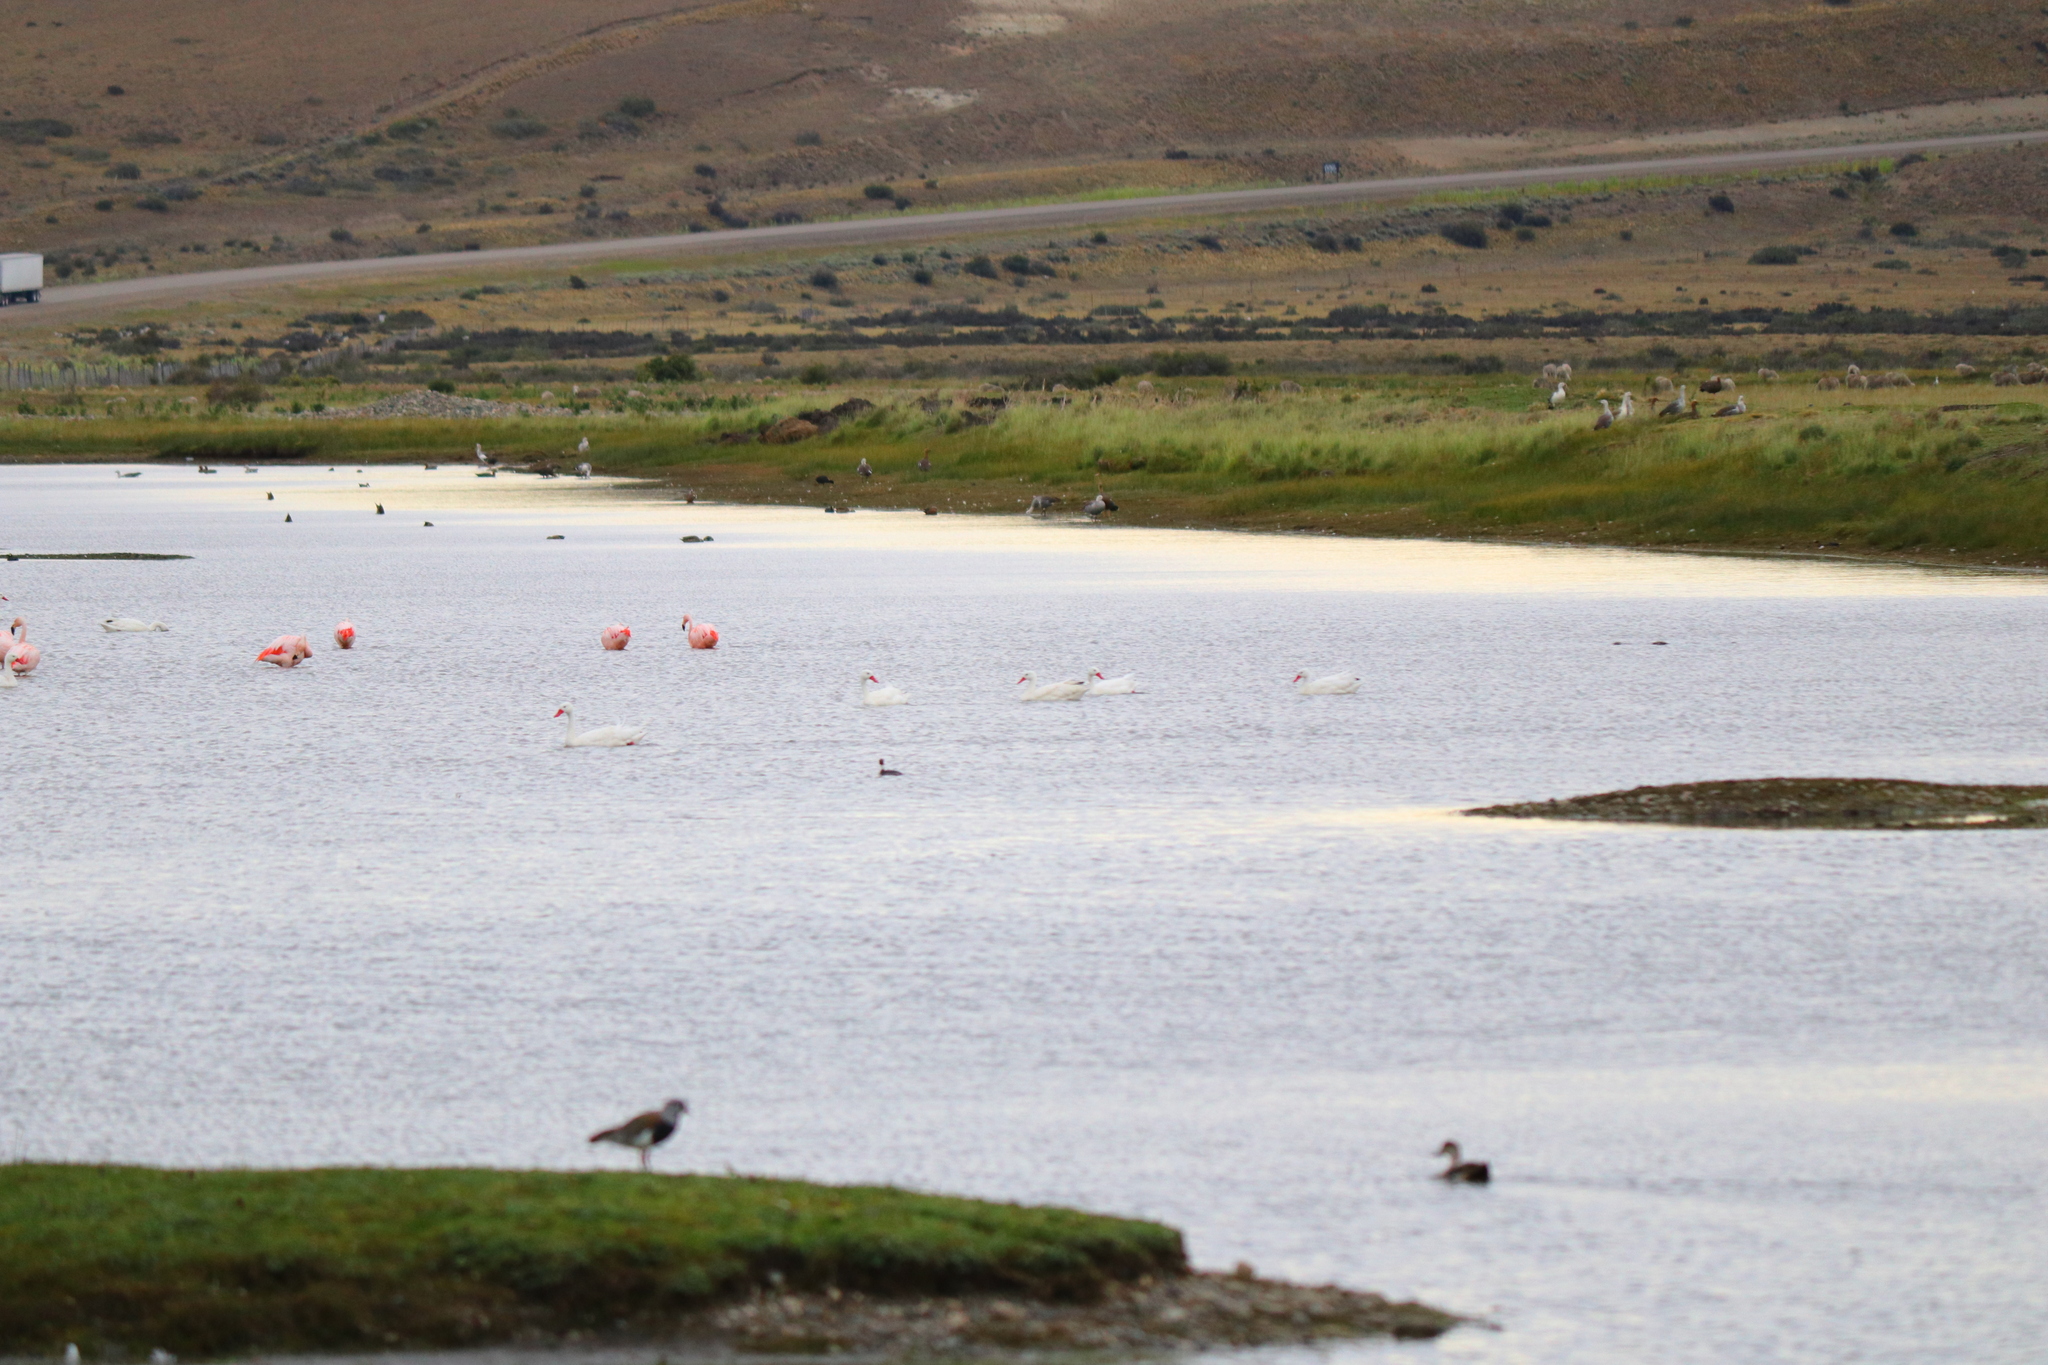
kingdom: Animalia
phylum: Chordata
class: Aves
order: Anseriformes
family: Anatidae
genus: Coscoroba
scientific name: Coscoroba coscoroba
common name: Coscoroba swan
